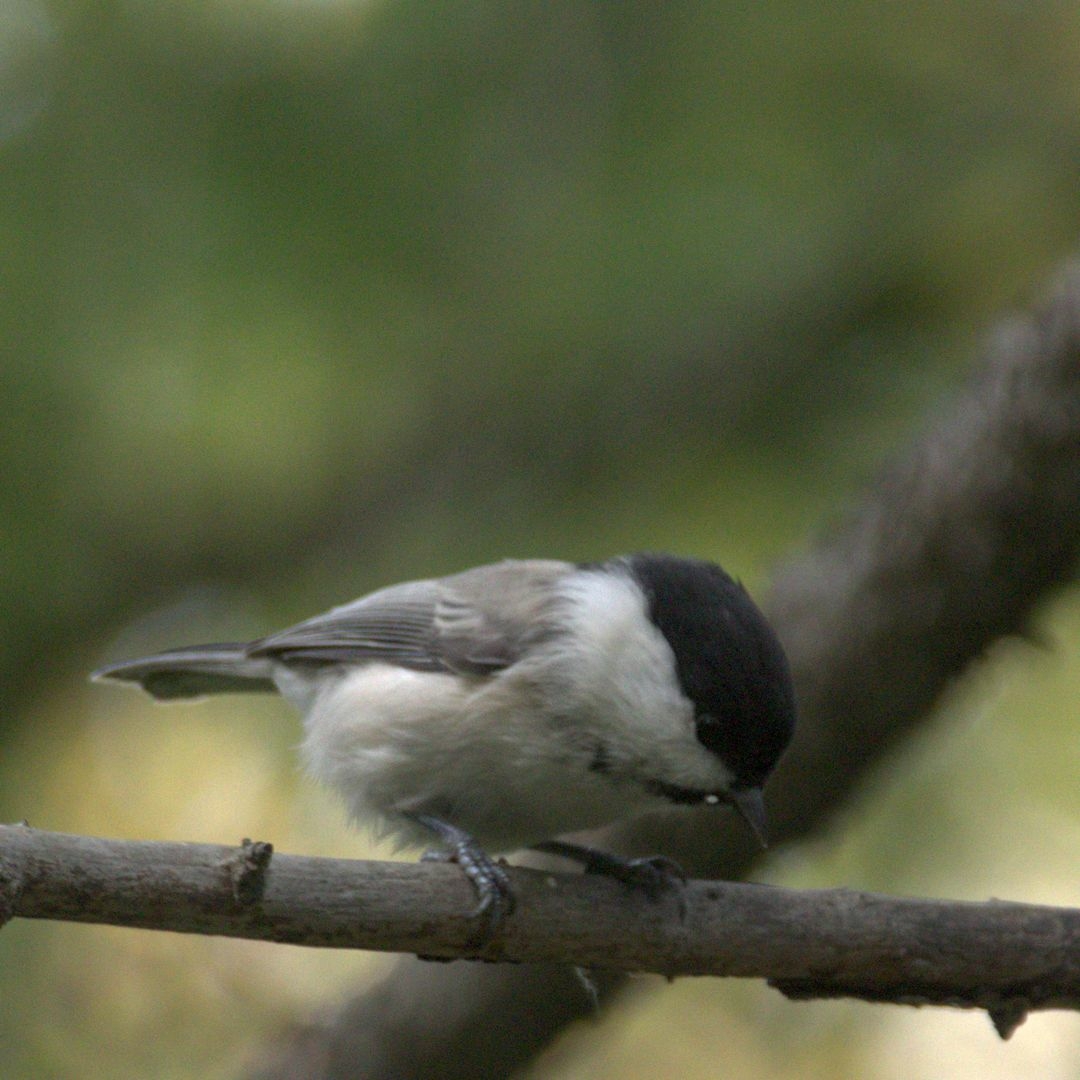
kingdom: Animalia
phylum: Chordata
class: Aves
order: Passeriformes
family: Paridae
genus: Poecile
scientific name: Poecile montanus
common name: Willow tit
